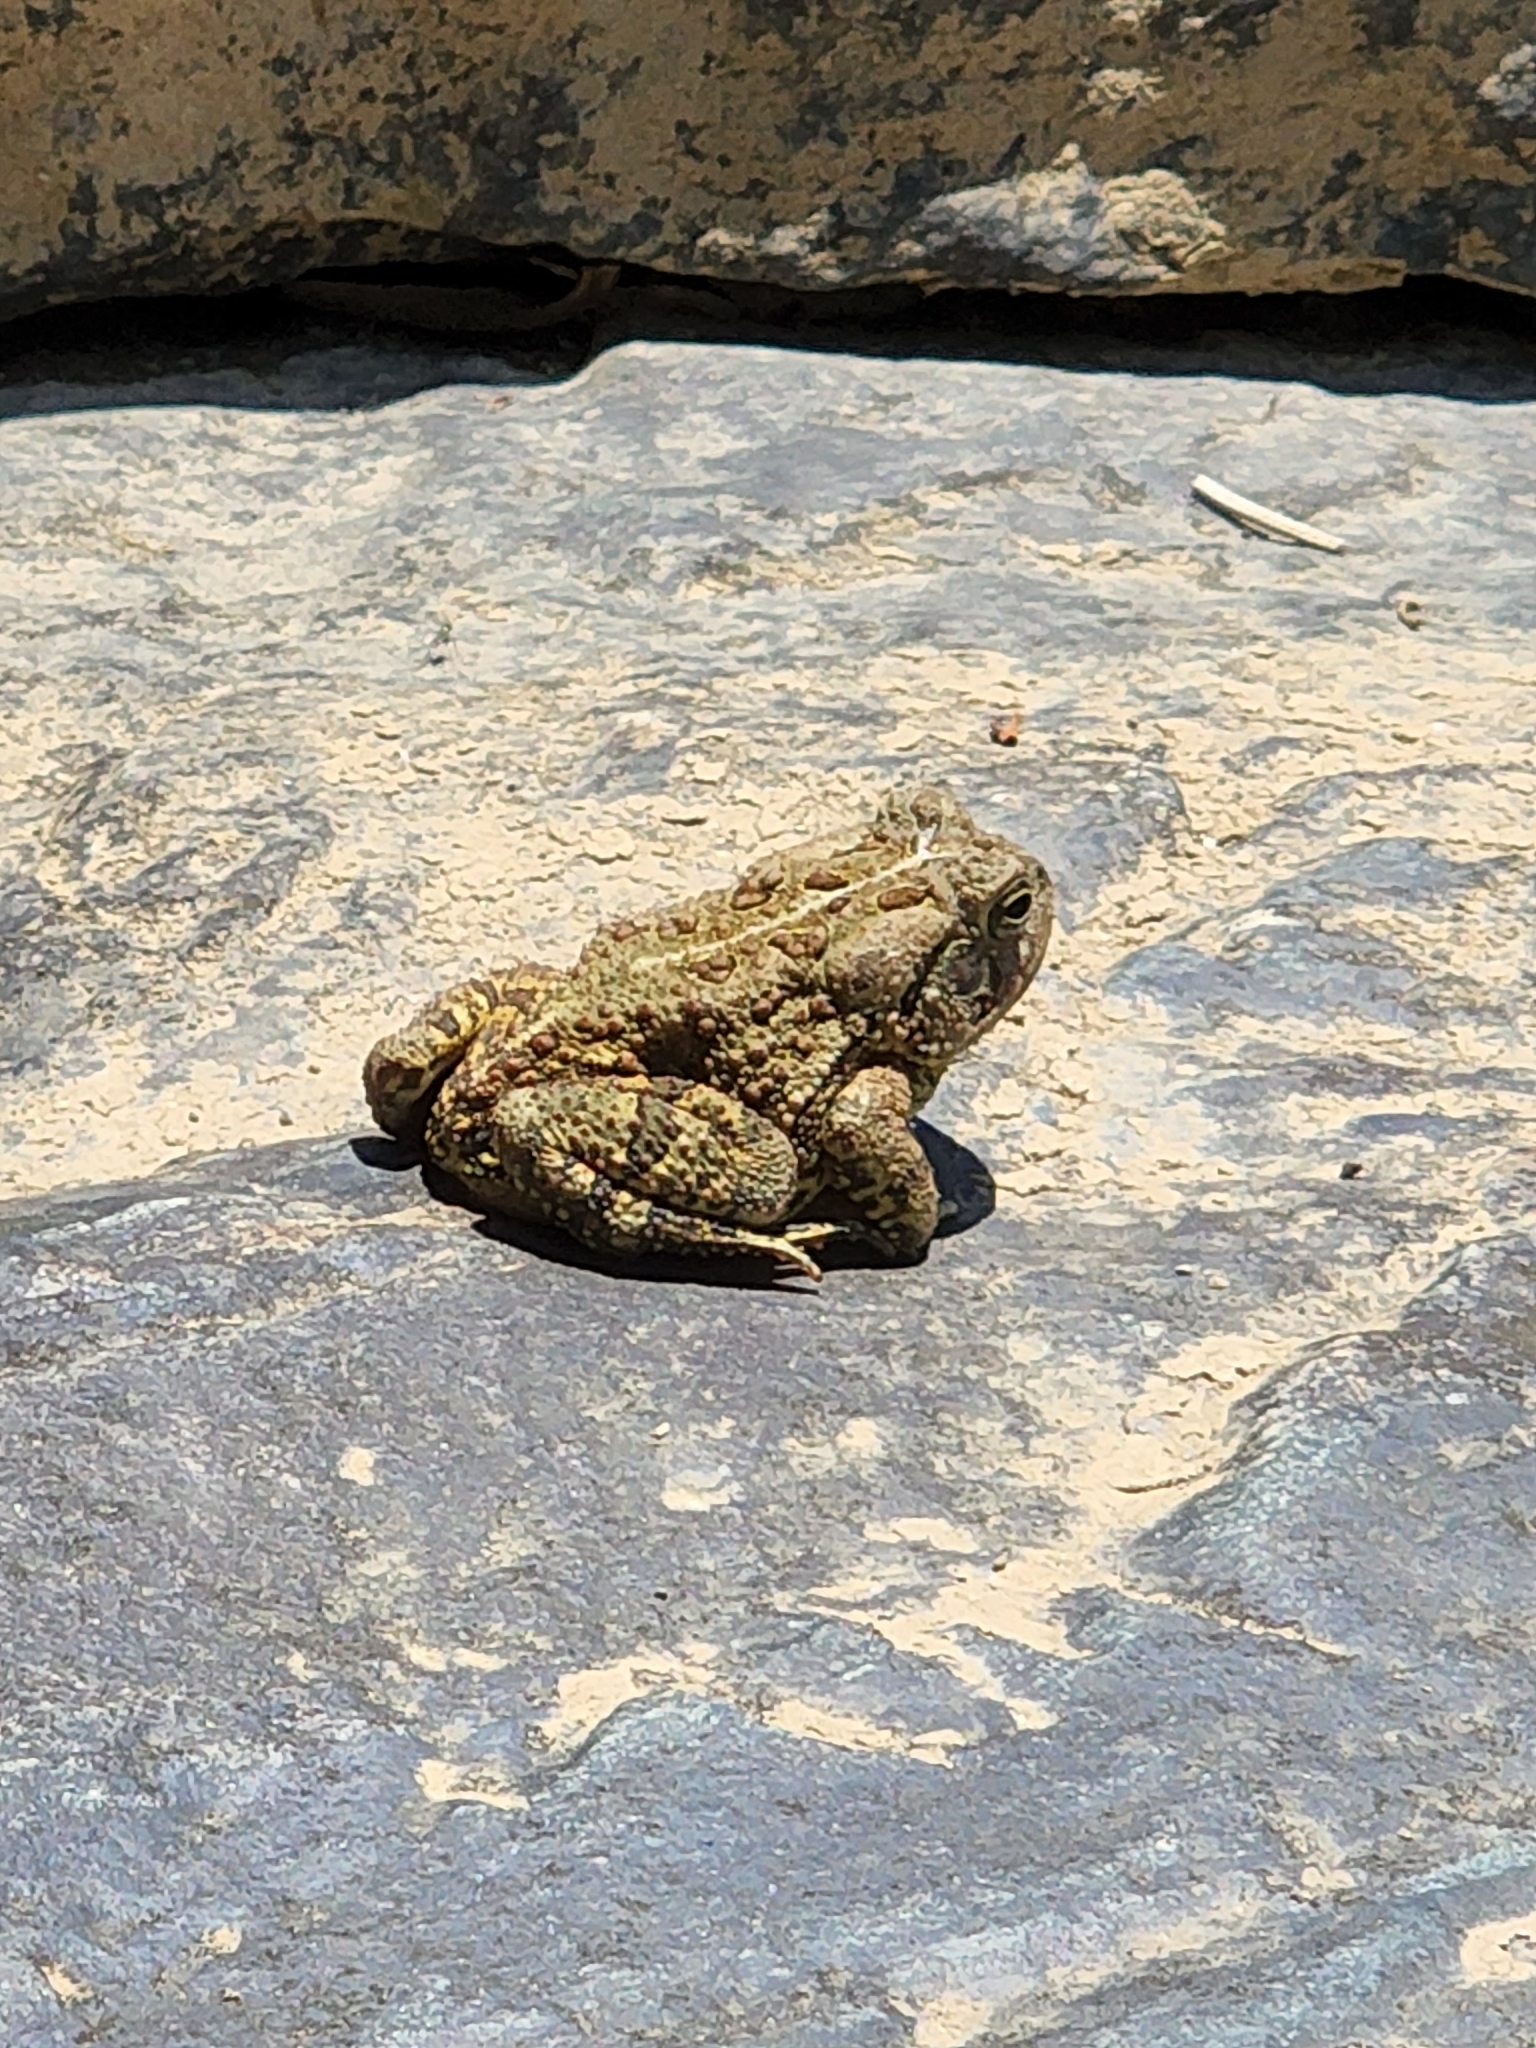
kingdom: Animalia
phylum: Chordata
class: Amphibia
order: Anura
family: Bufonidae
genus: Anaxyrus
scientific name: Anaxyrus fowleri
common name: Fowler's toad
